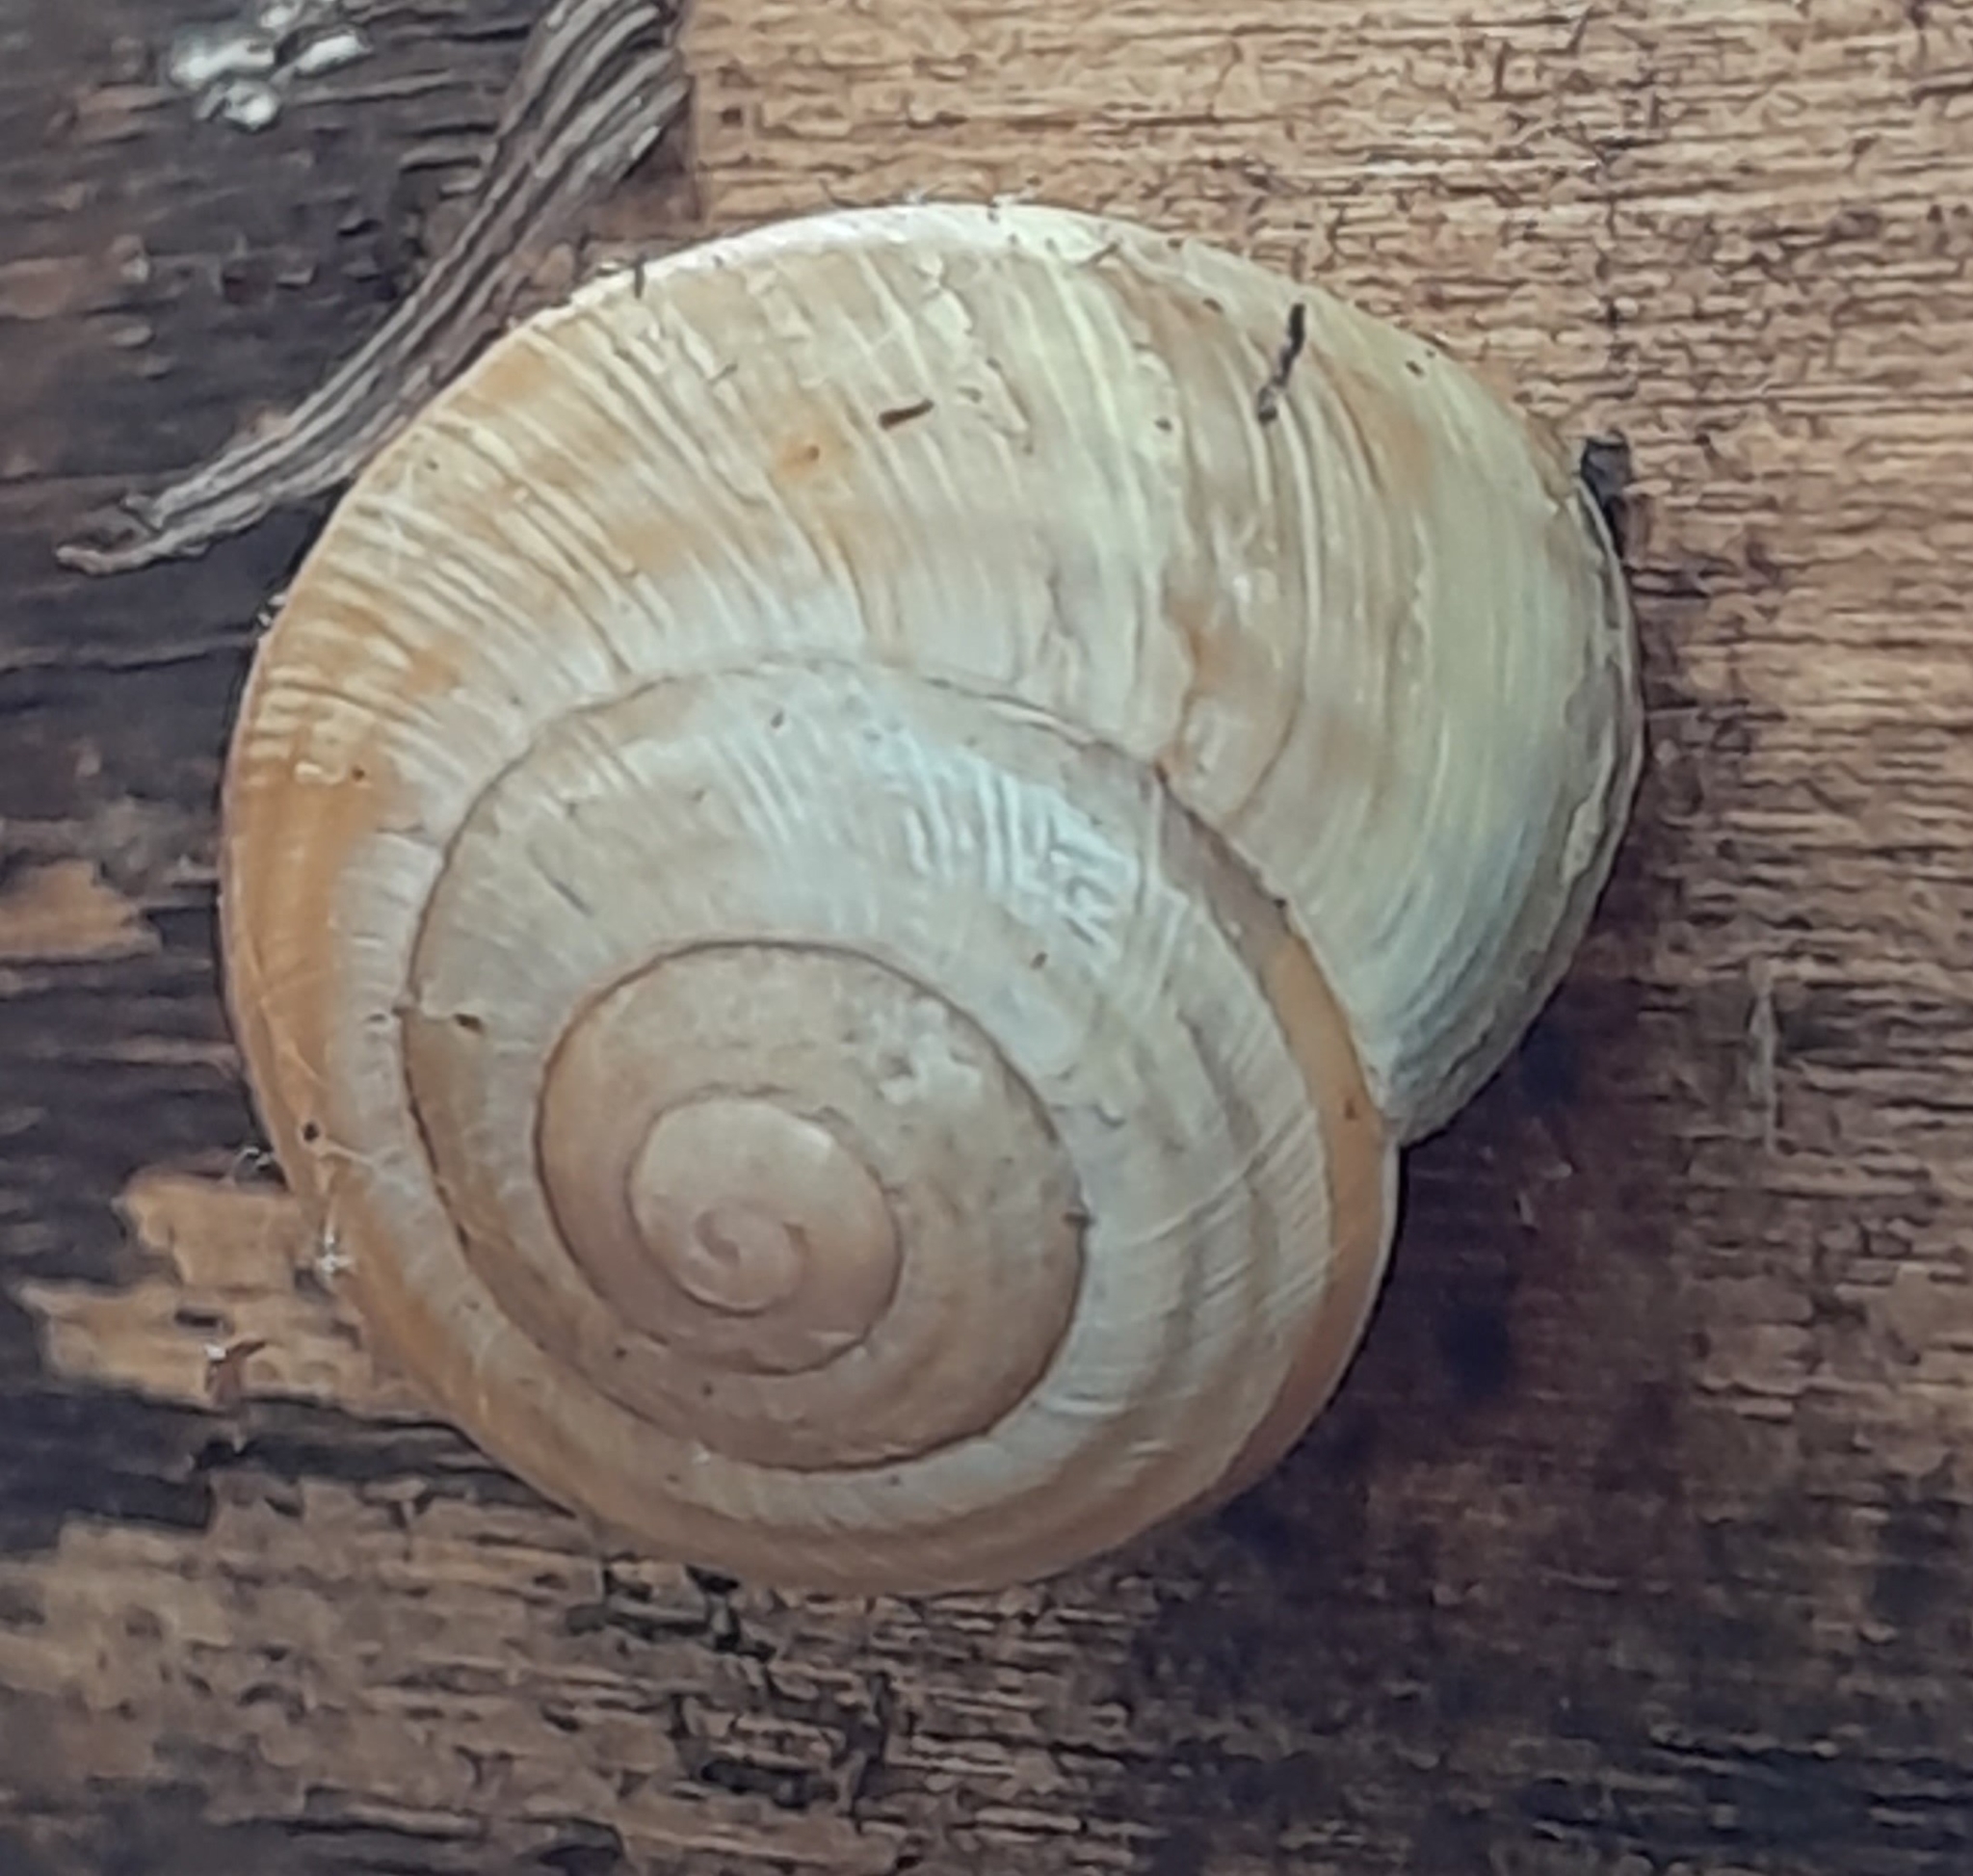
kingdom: Animalia
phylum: Mollusca
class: Gastropoda
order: Stylommatophora
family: Helicidae
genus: Caucasotachea
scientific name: Caucasotachea vindobonensis
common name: European helicid land snail
